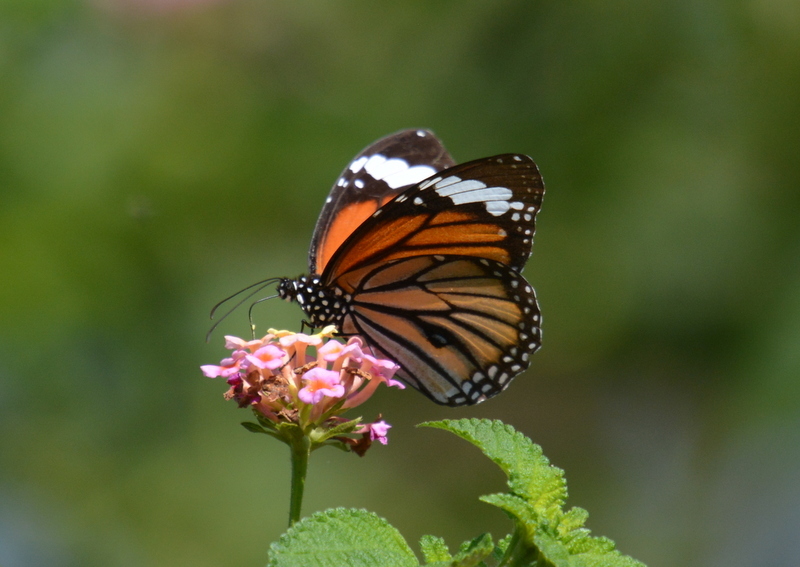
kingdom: Animalia
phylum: Arthropoda
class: Insecta
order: Lepidoptera
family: Nymphalidae
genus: Danaus
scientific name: Danaus genutia
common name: Common tiger butterfly
